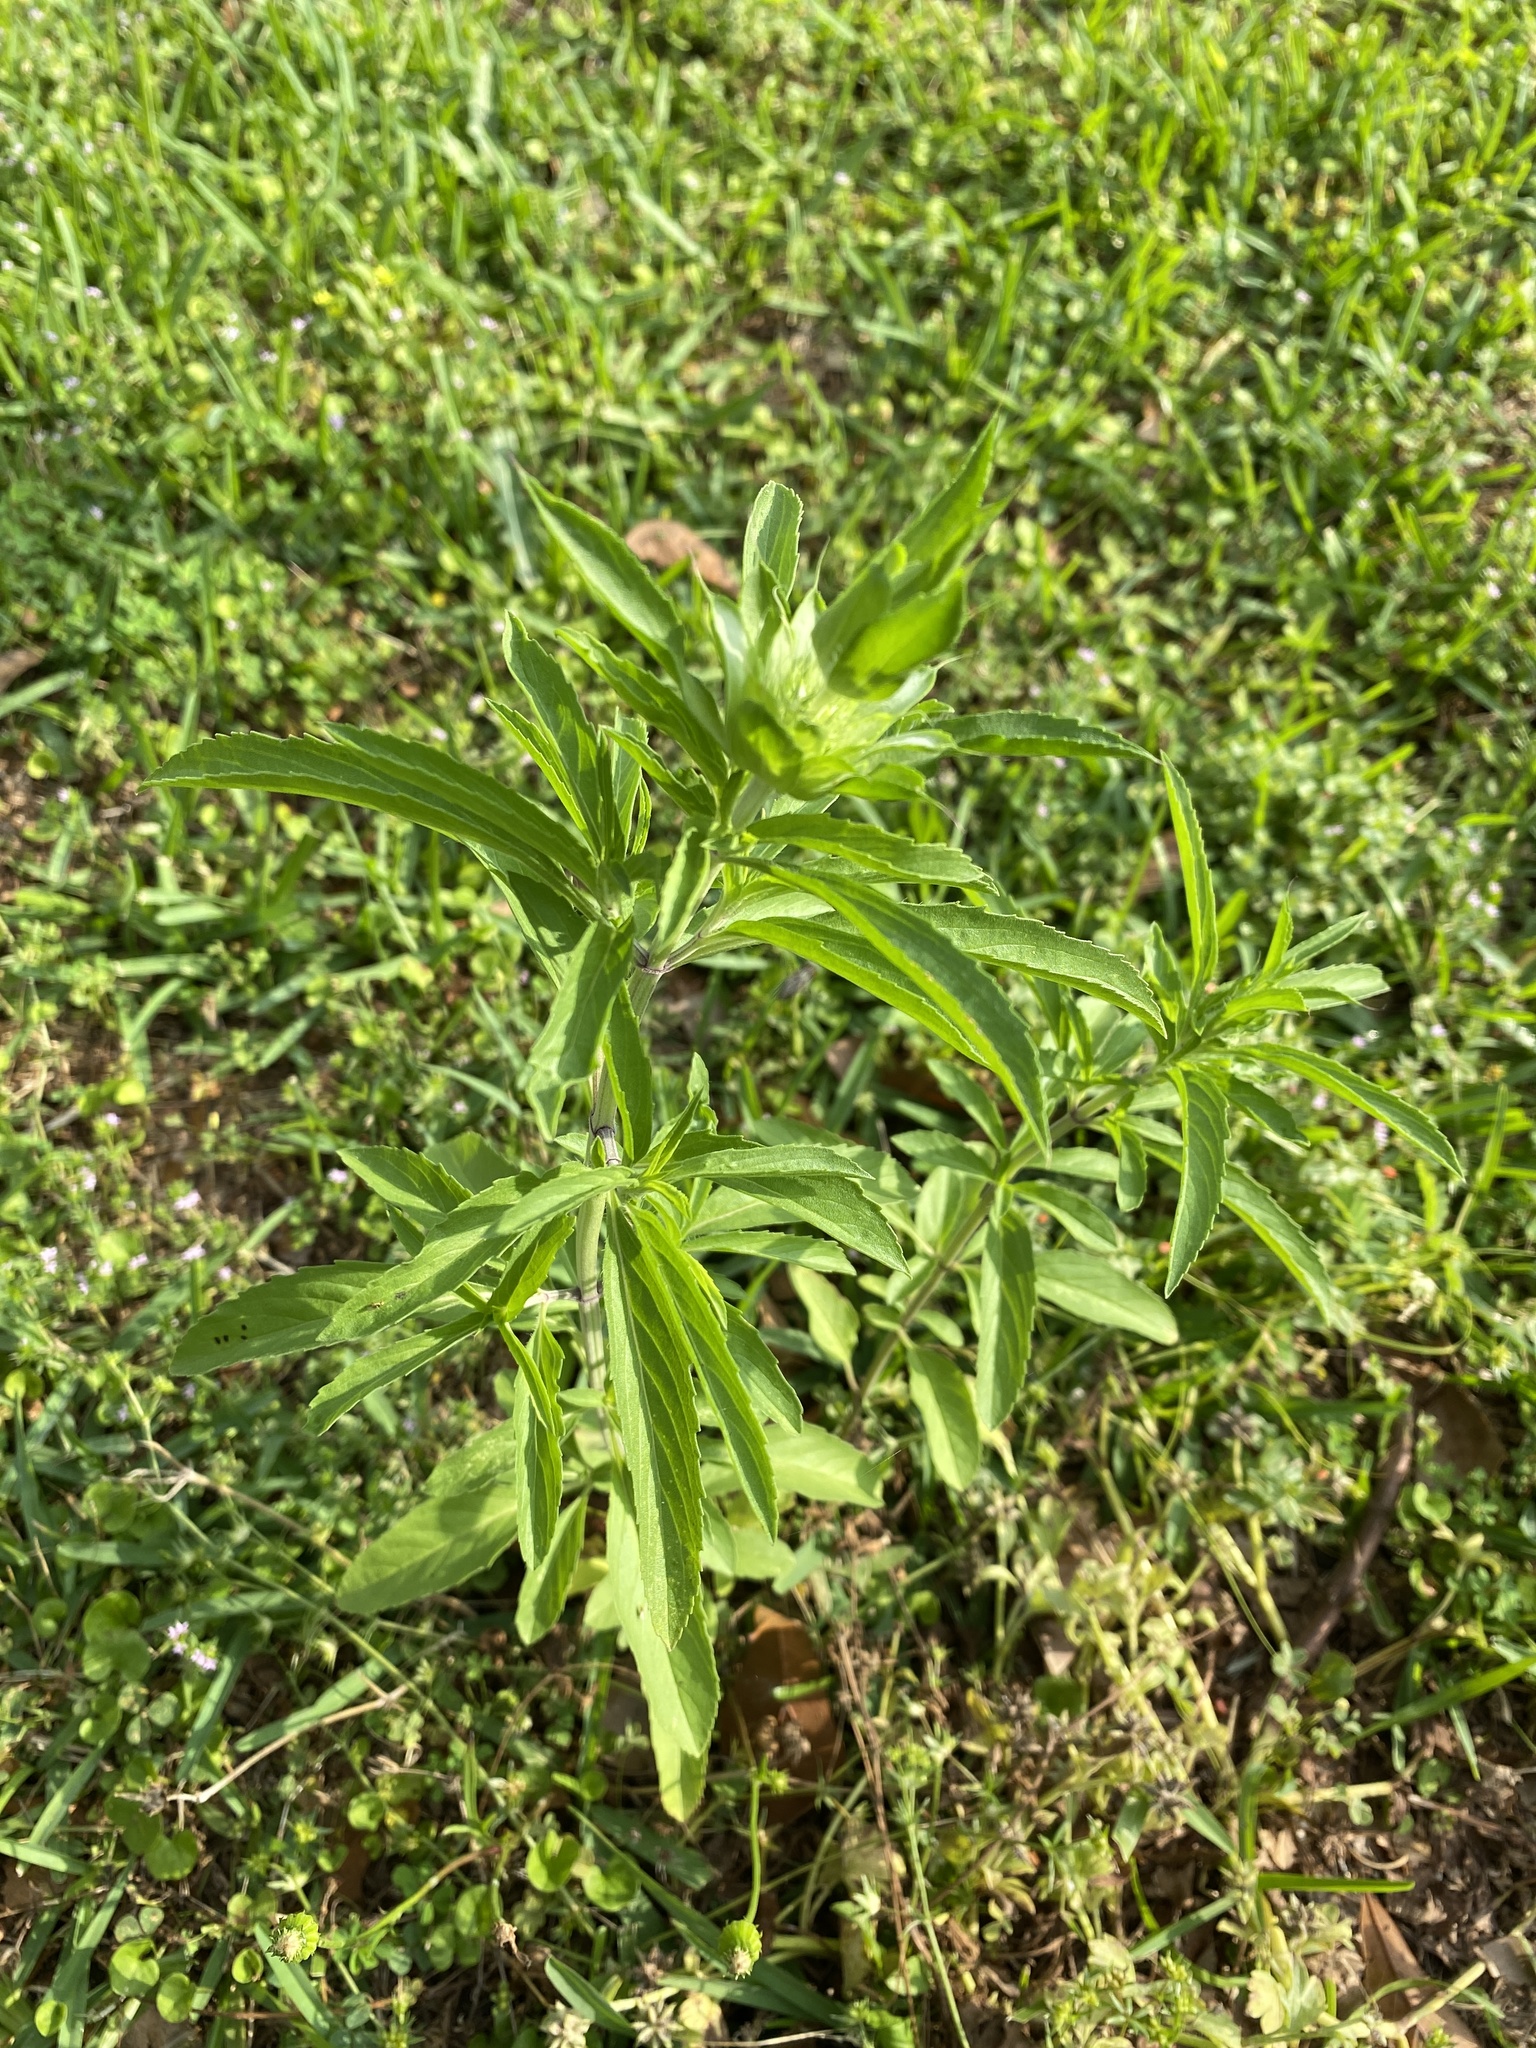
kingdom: Plantae
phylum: Tracheophyta
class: Magnoliopsida
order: Lamiales
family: Lamiaceae
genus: Monarda
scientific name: Monarda citriodora
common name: Lemon beebalm
